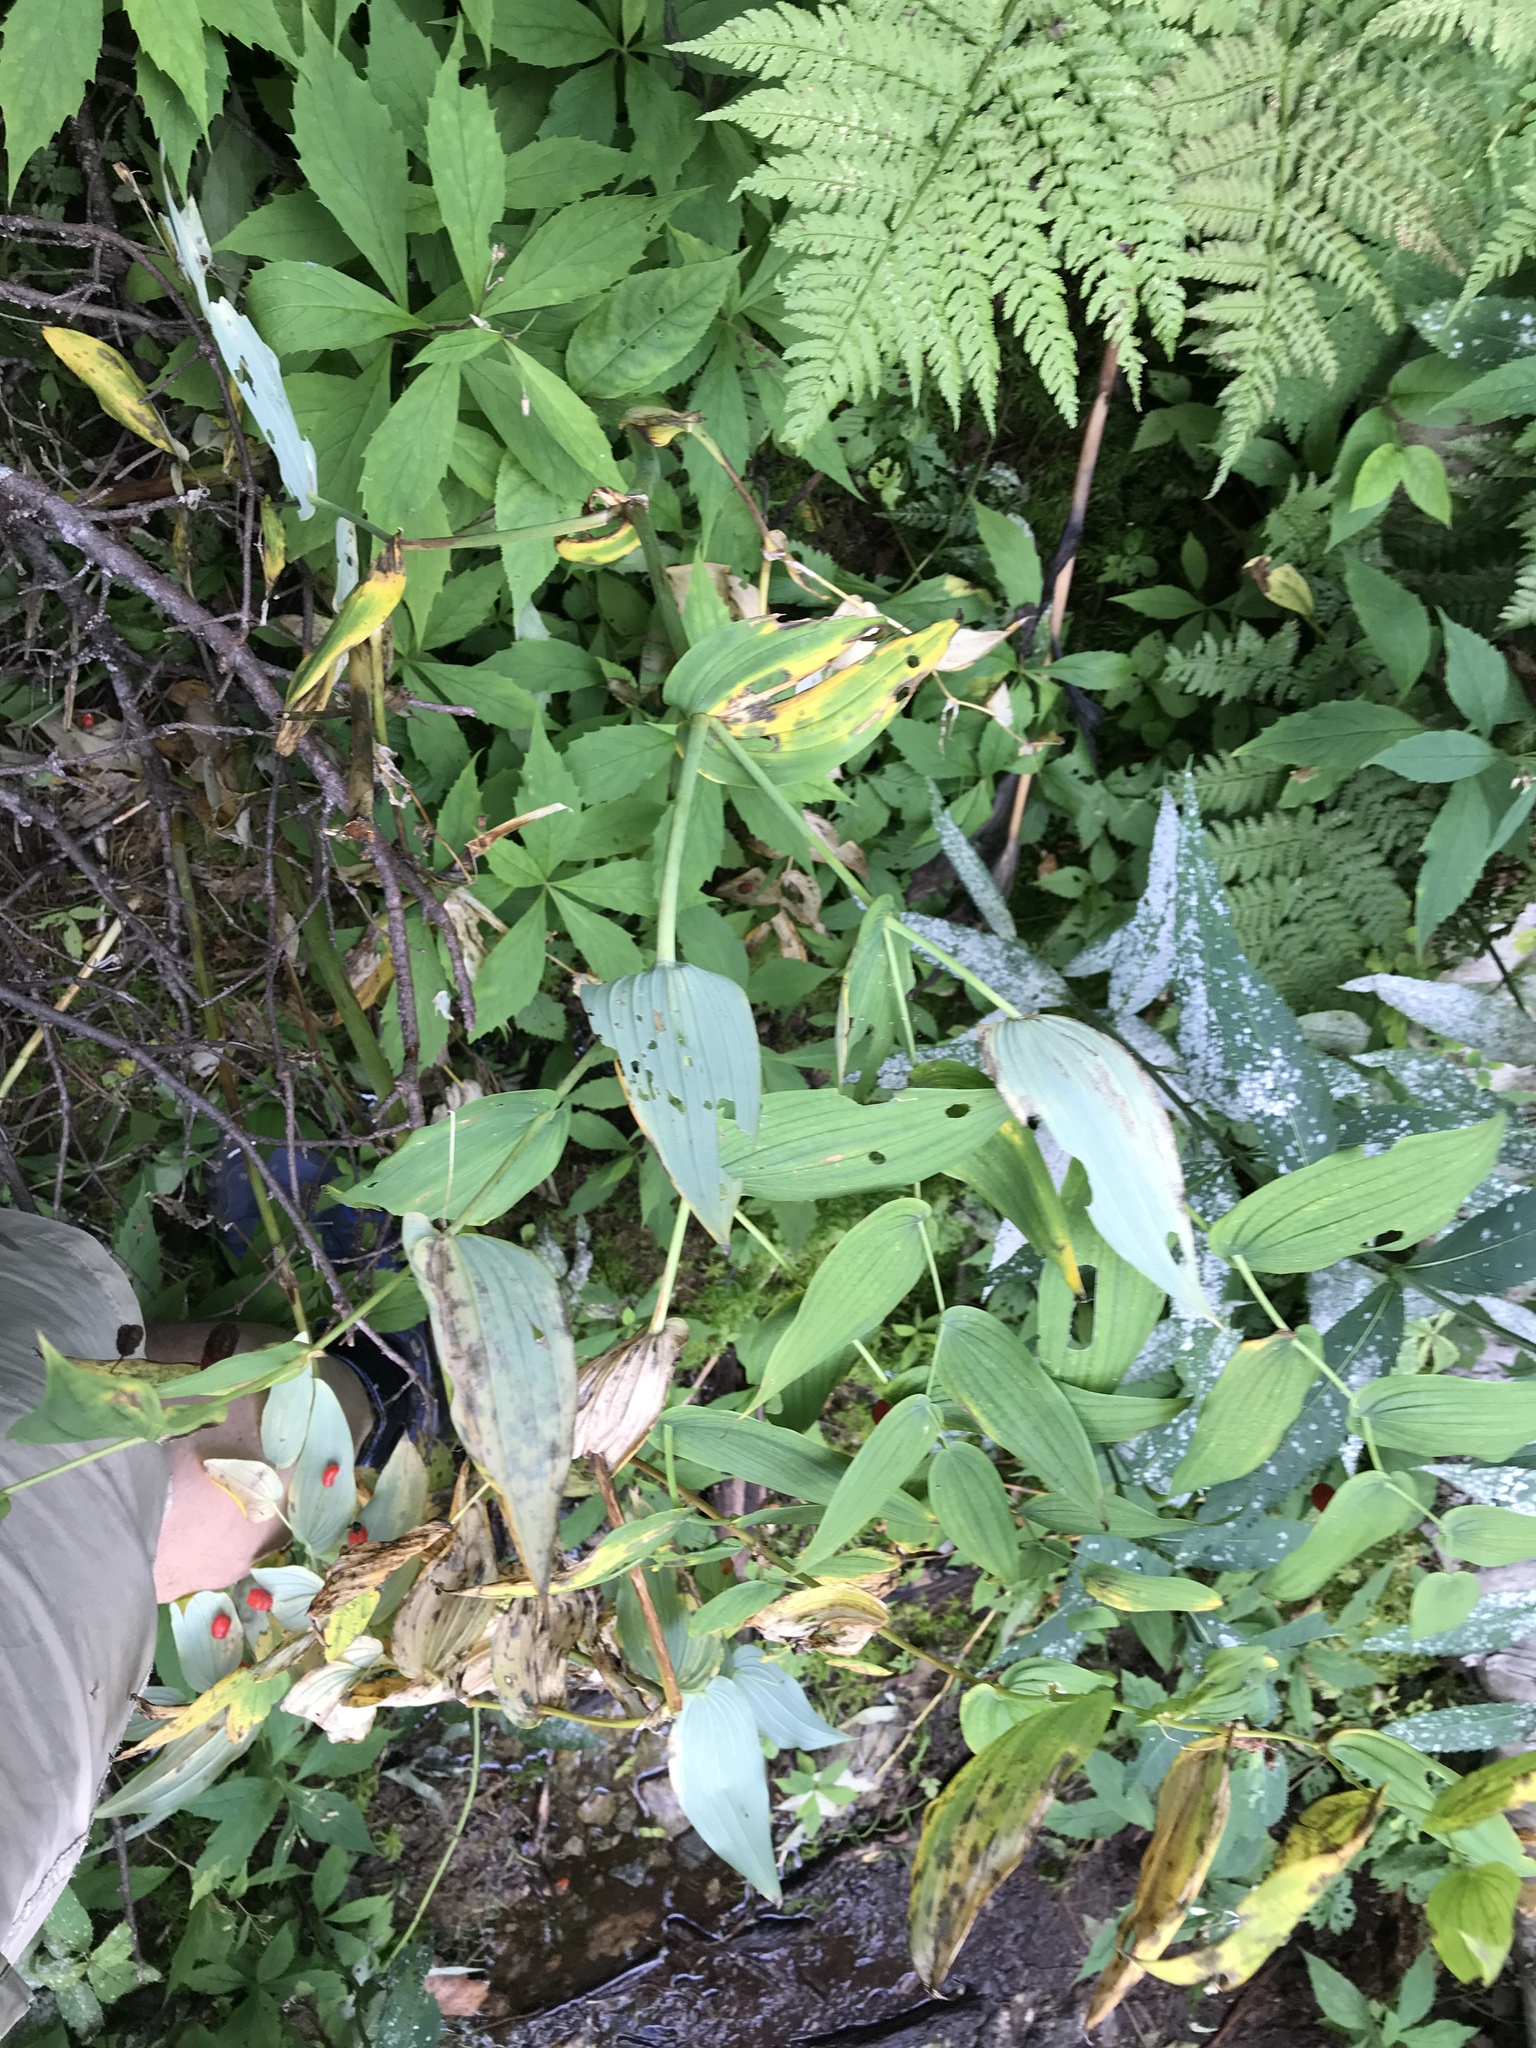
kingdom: Plantae
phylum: Tracheophyta
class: Liliopsida
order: Liliales
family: Liliaceae
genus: Streptopus
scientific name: Streptopus amplexifolius
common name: Clasp twisted stalk
